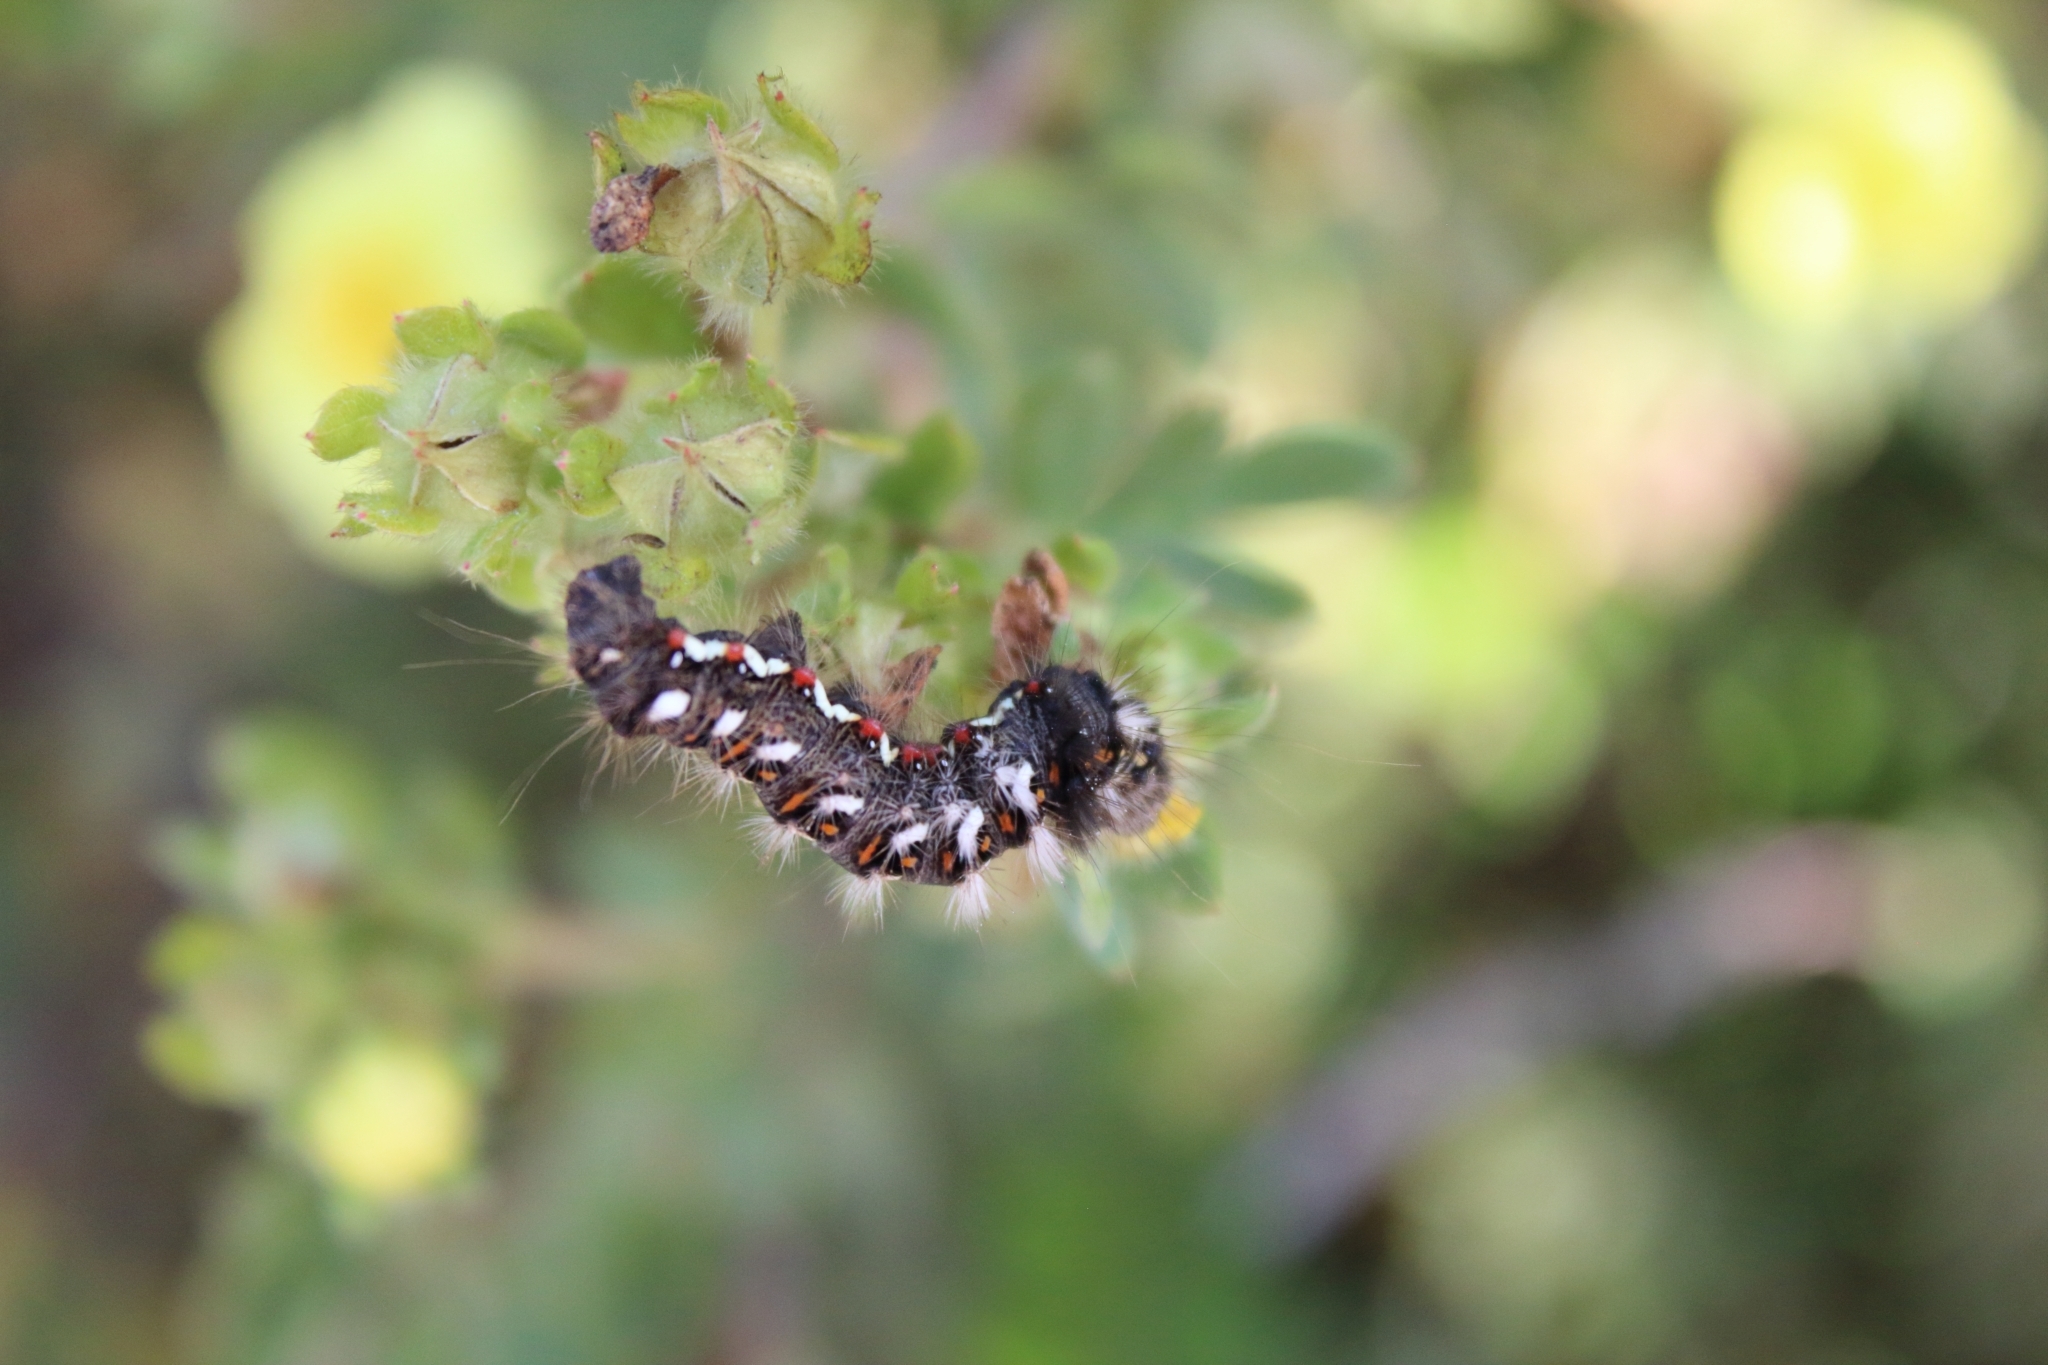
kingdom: Animalia
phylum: Arthropoda
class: Insecta
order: Lepidoptera
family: Noctuidae
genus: Acronicta
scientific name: Acronicta rumicis
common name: Knot grass
